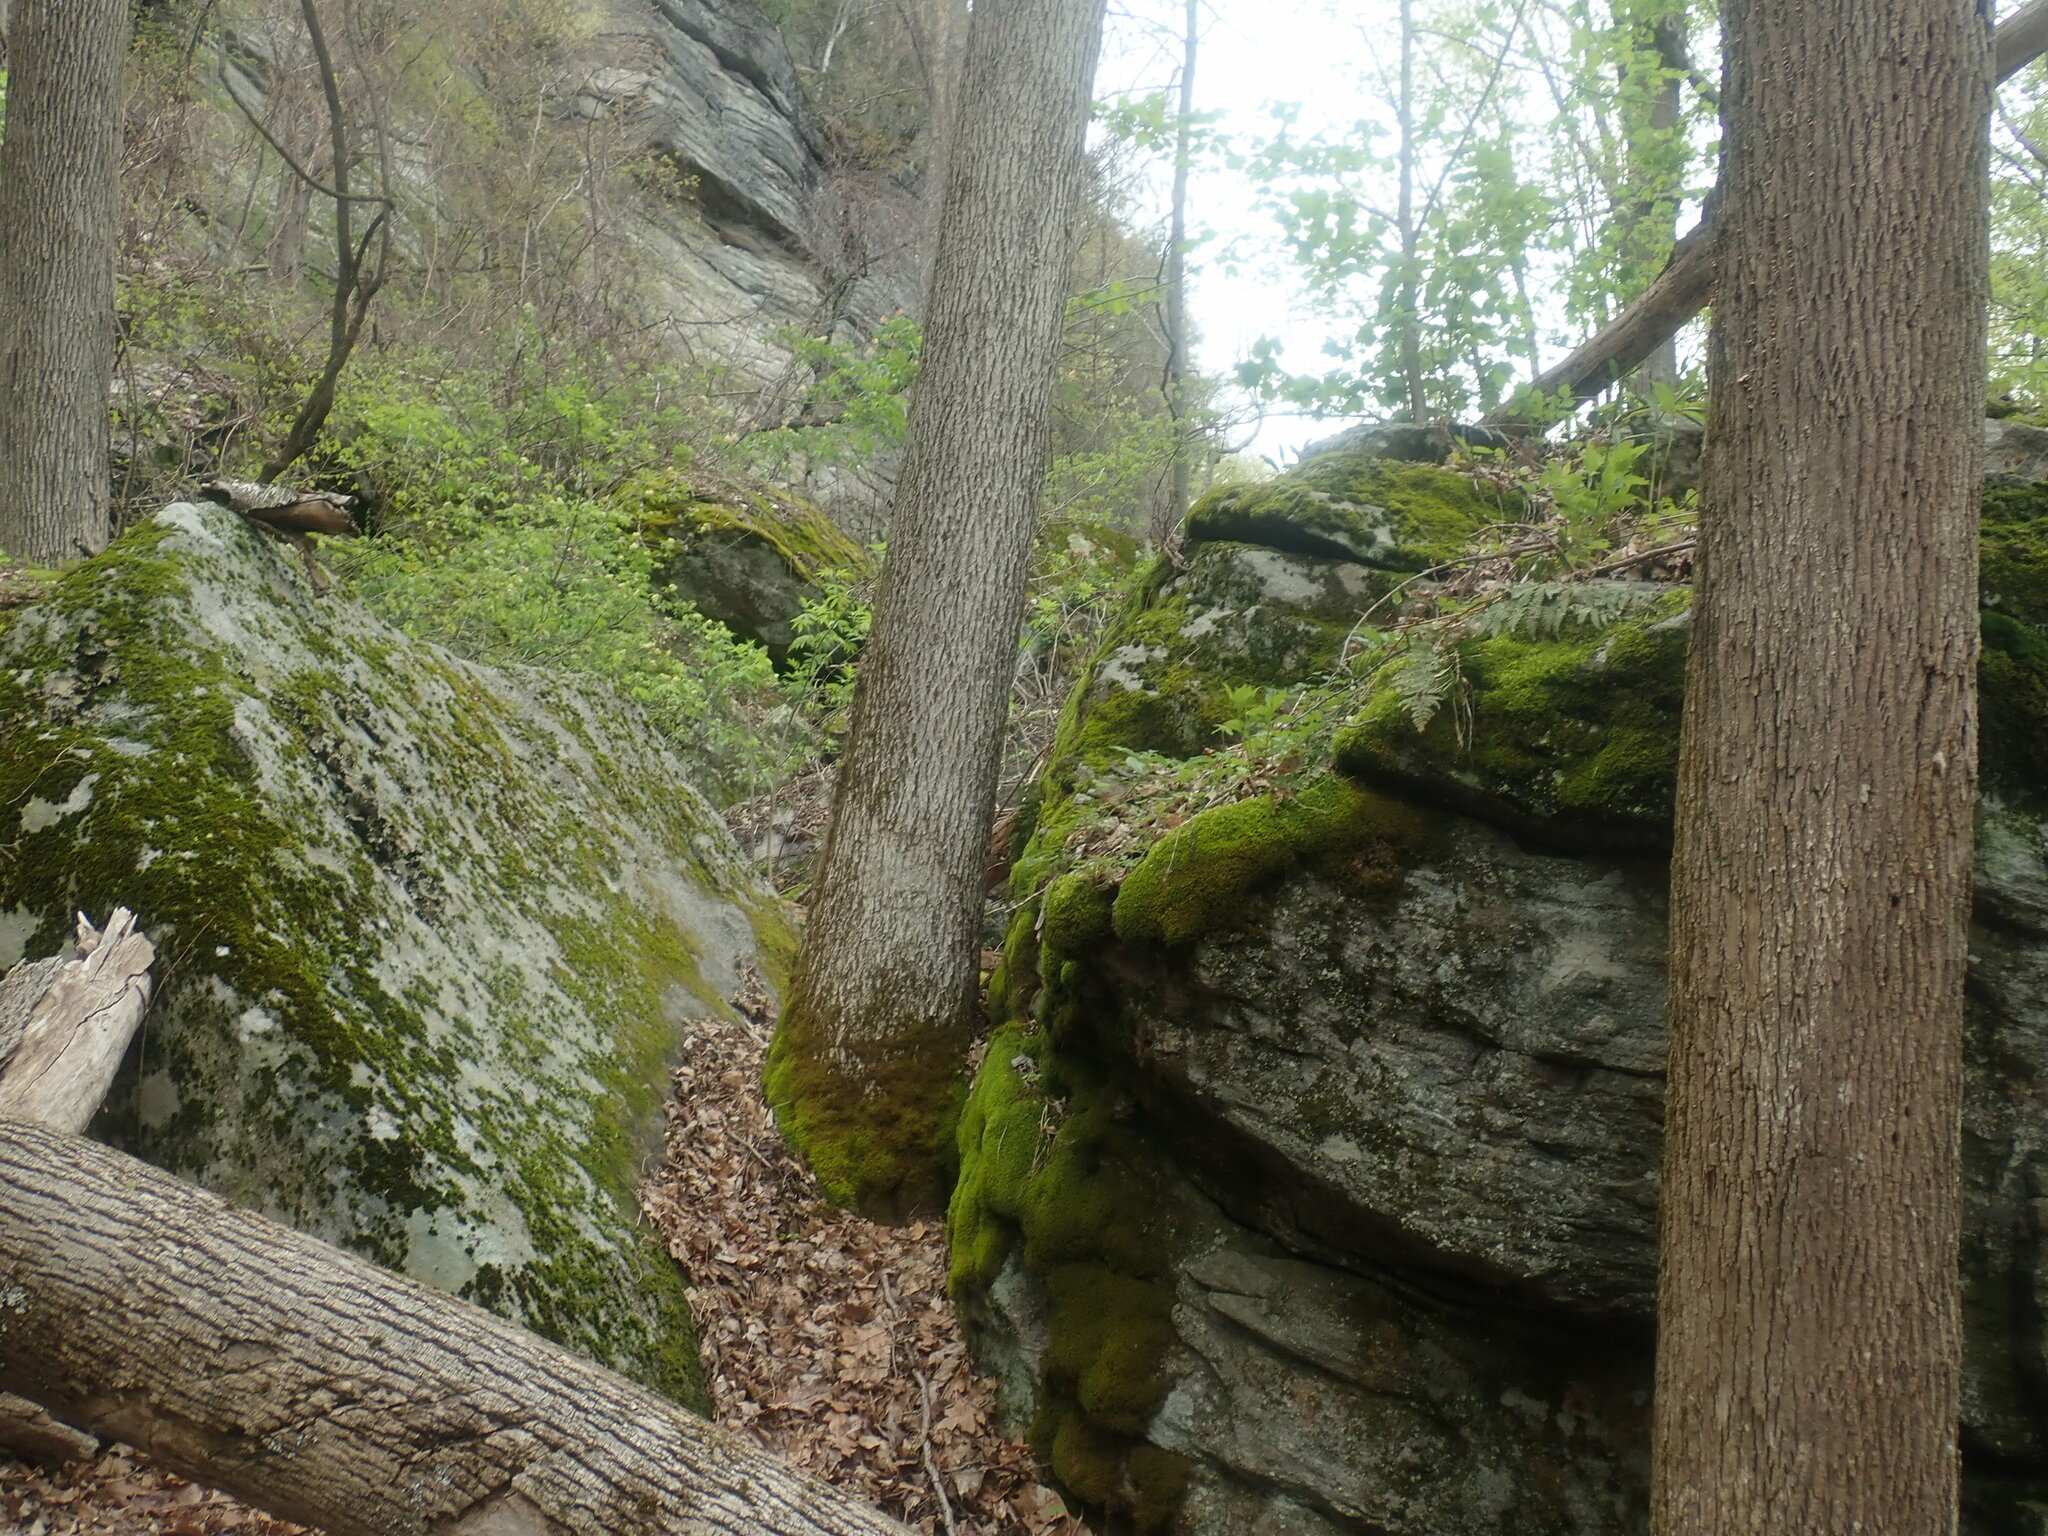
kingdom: Plantae
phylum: Tracheophyta
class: Magnoliopsida
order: Lamiales
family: Oleaceae
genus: Fraxinus
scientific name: Fraxinus americana
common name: White ash
